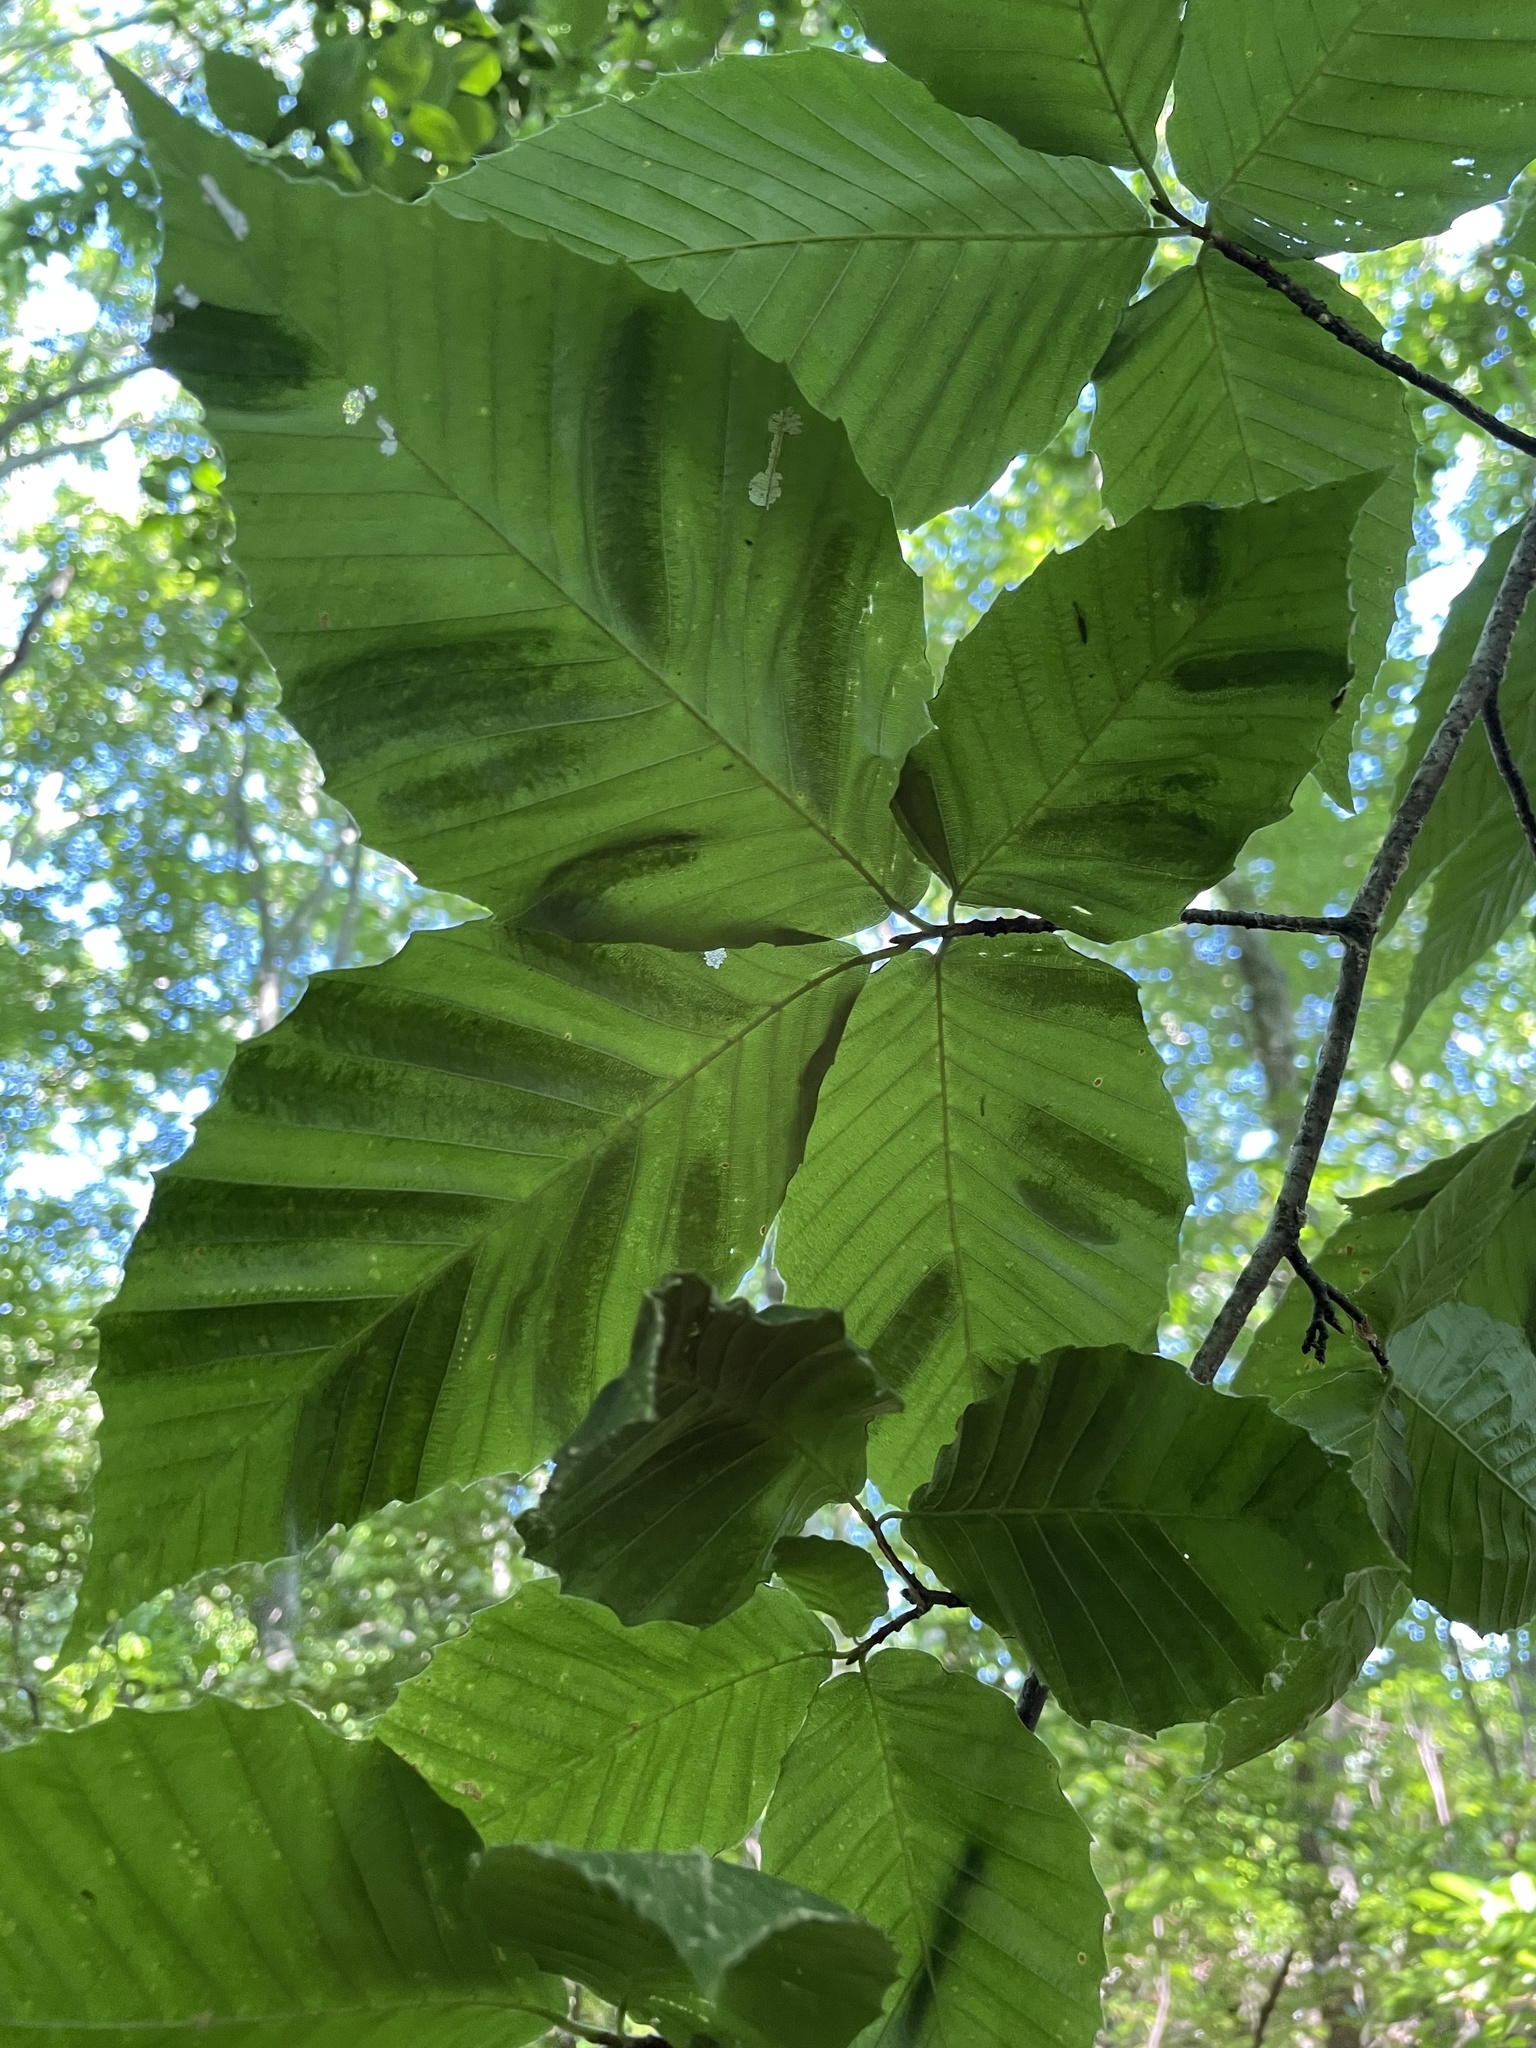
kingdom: Animalia
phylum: Nematoda
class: Chromadorea
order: Rhabditida
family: Anguinidae
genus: Litylenchus
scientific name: Litylenchus crenatae
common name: Beech leaf disease
